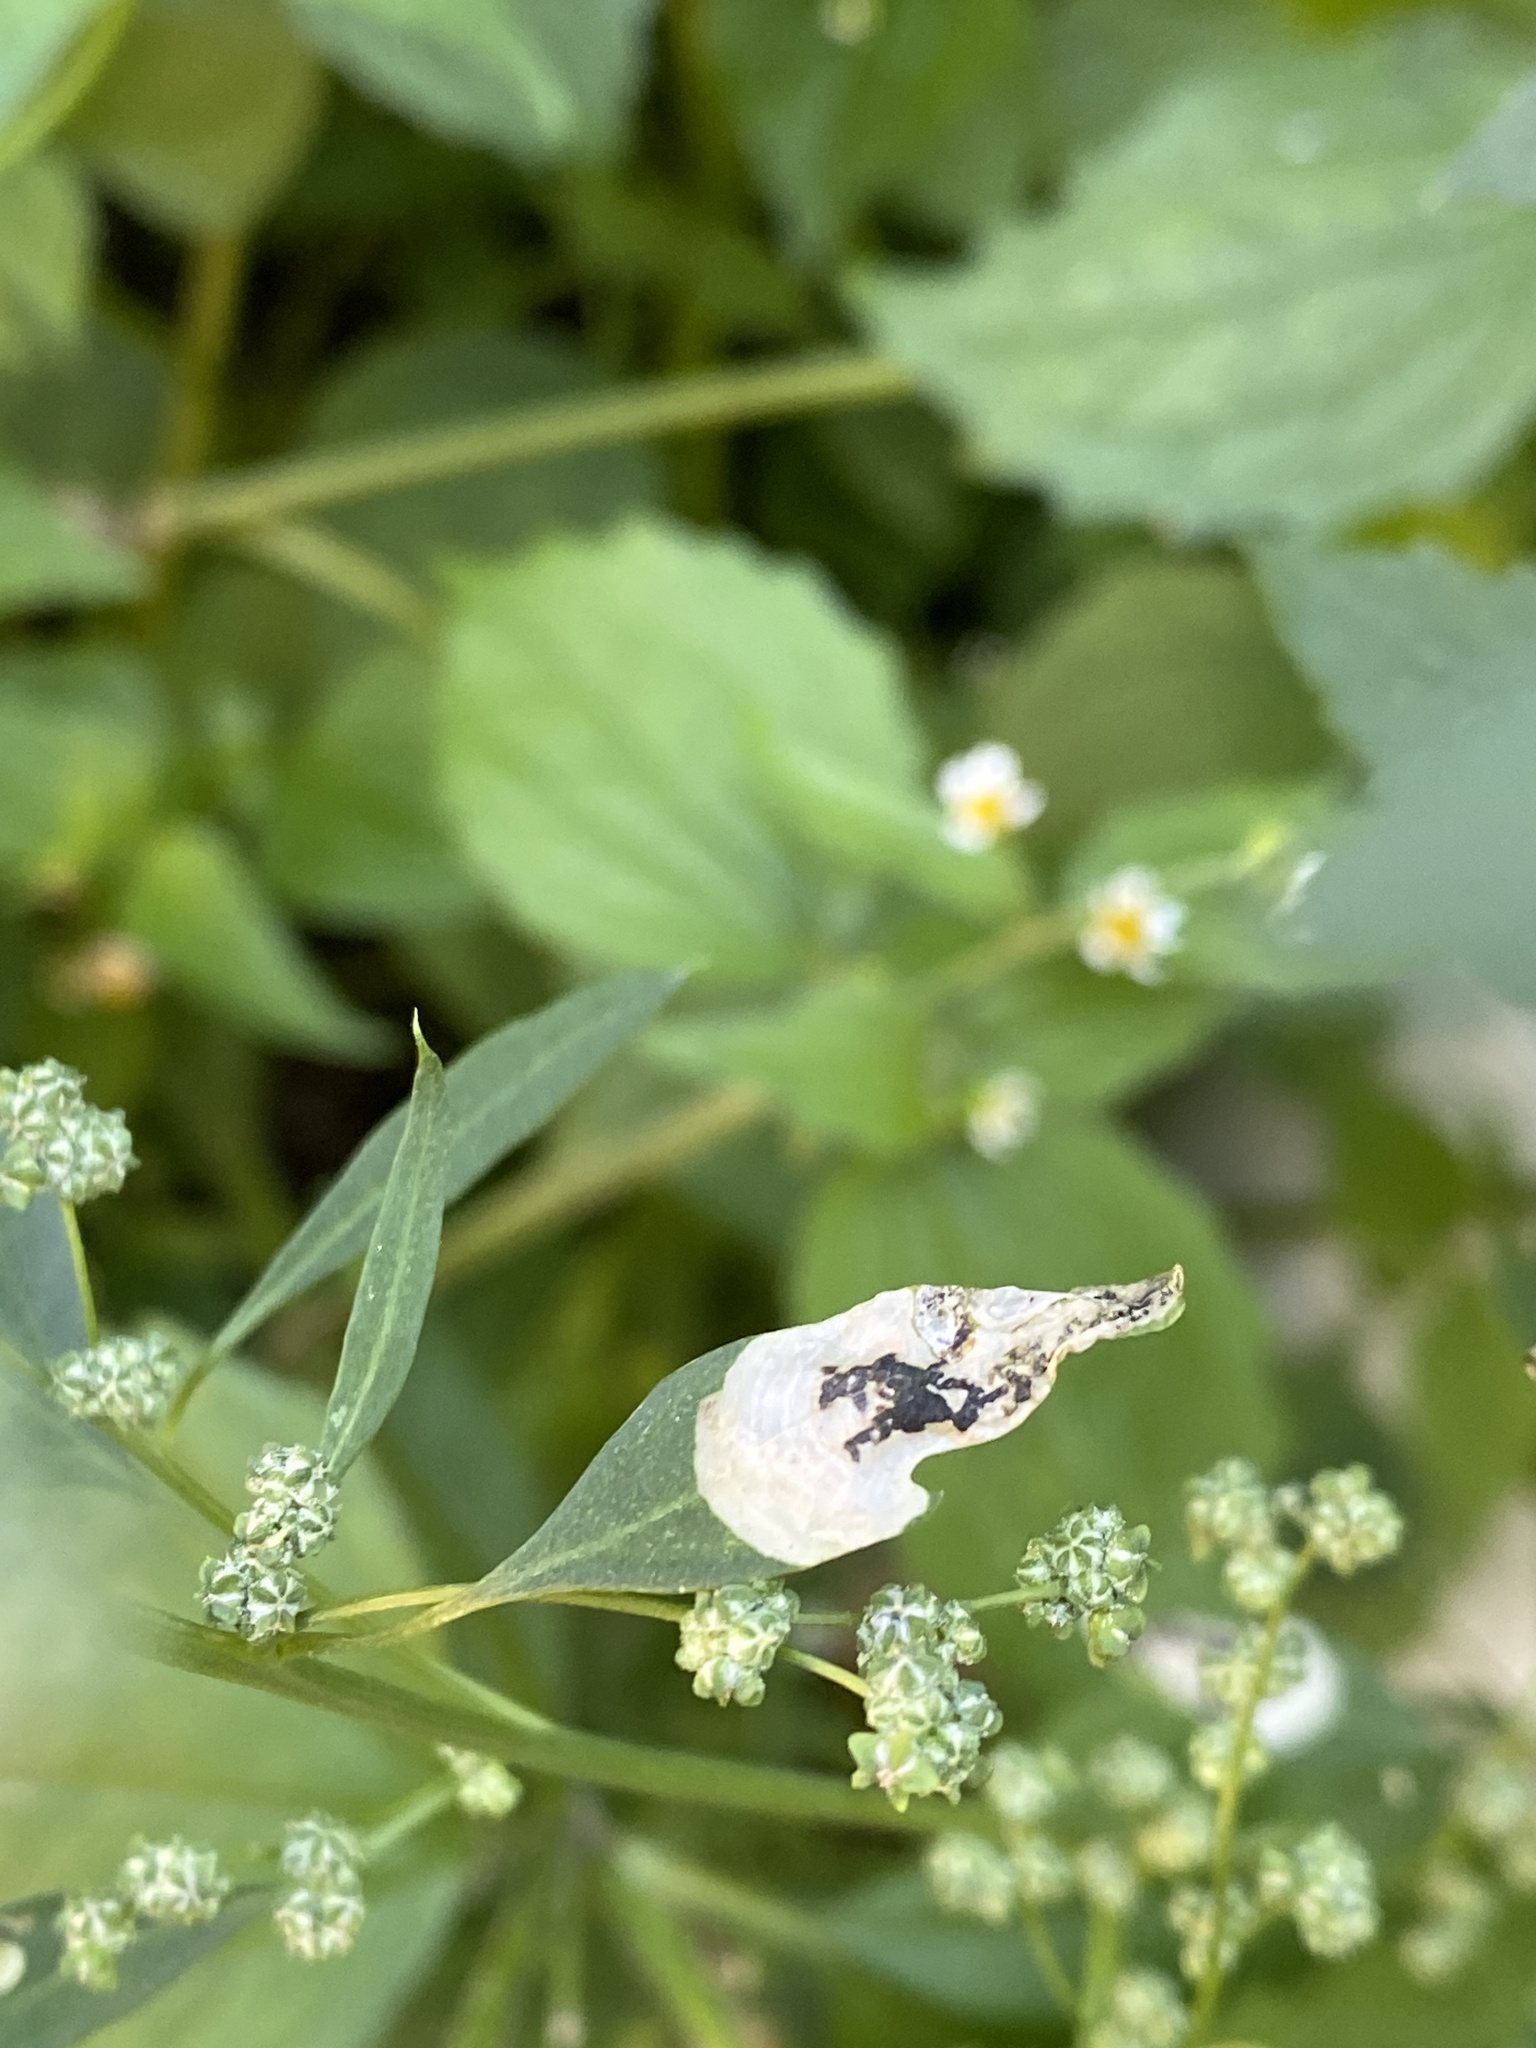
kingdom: Animalia
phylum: Arthropoda
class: Insecta
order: Lepidoptera
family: Gelechiidae
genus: Chrysoesthia
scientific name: Chrysoesthia sexguttella
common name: Moth
